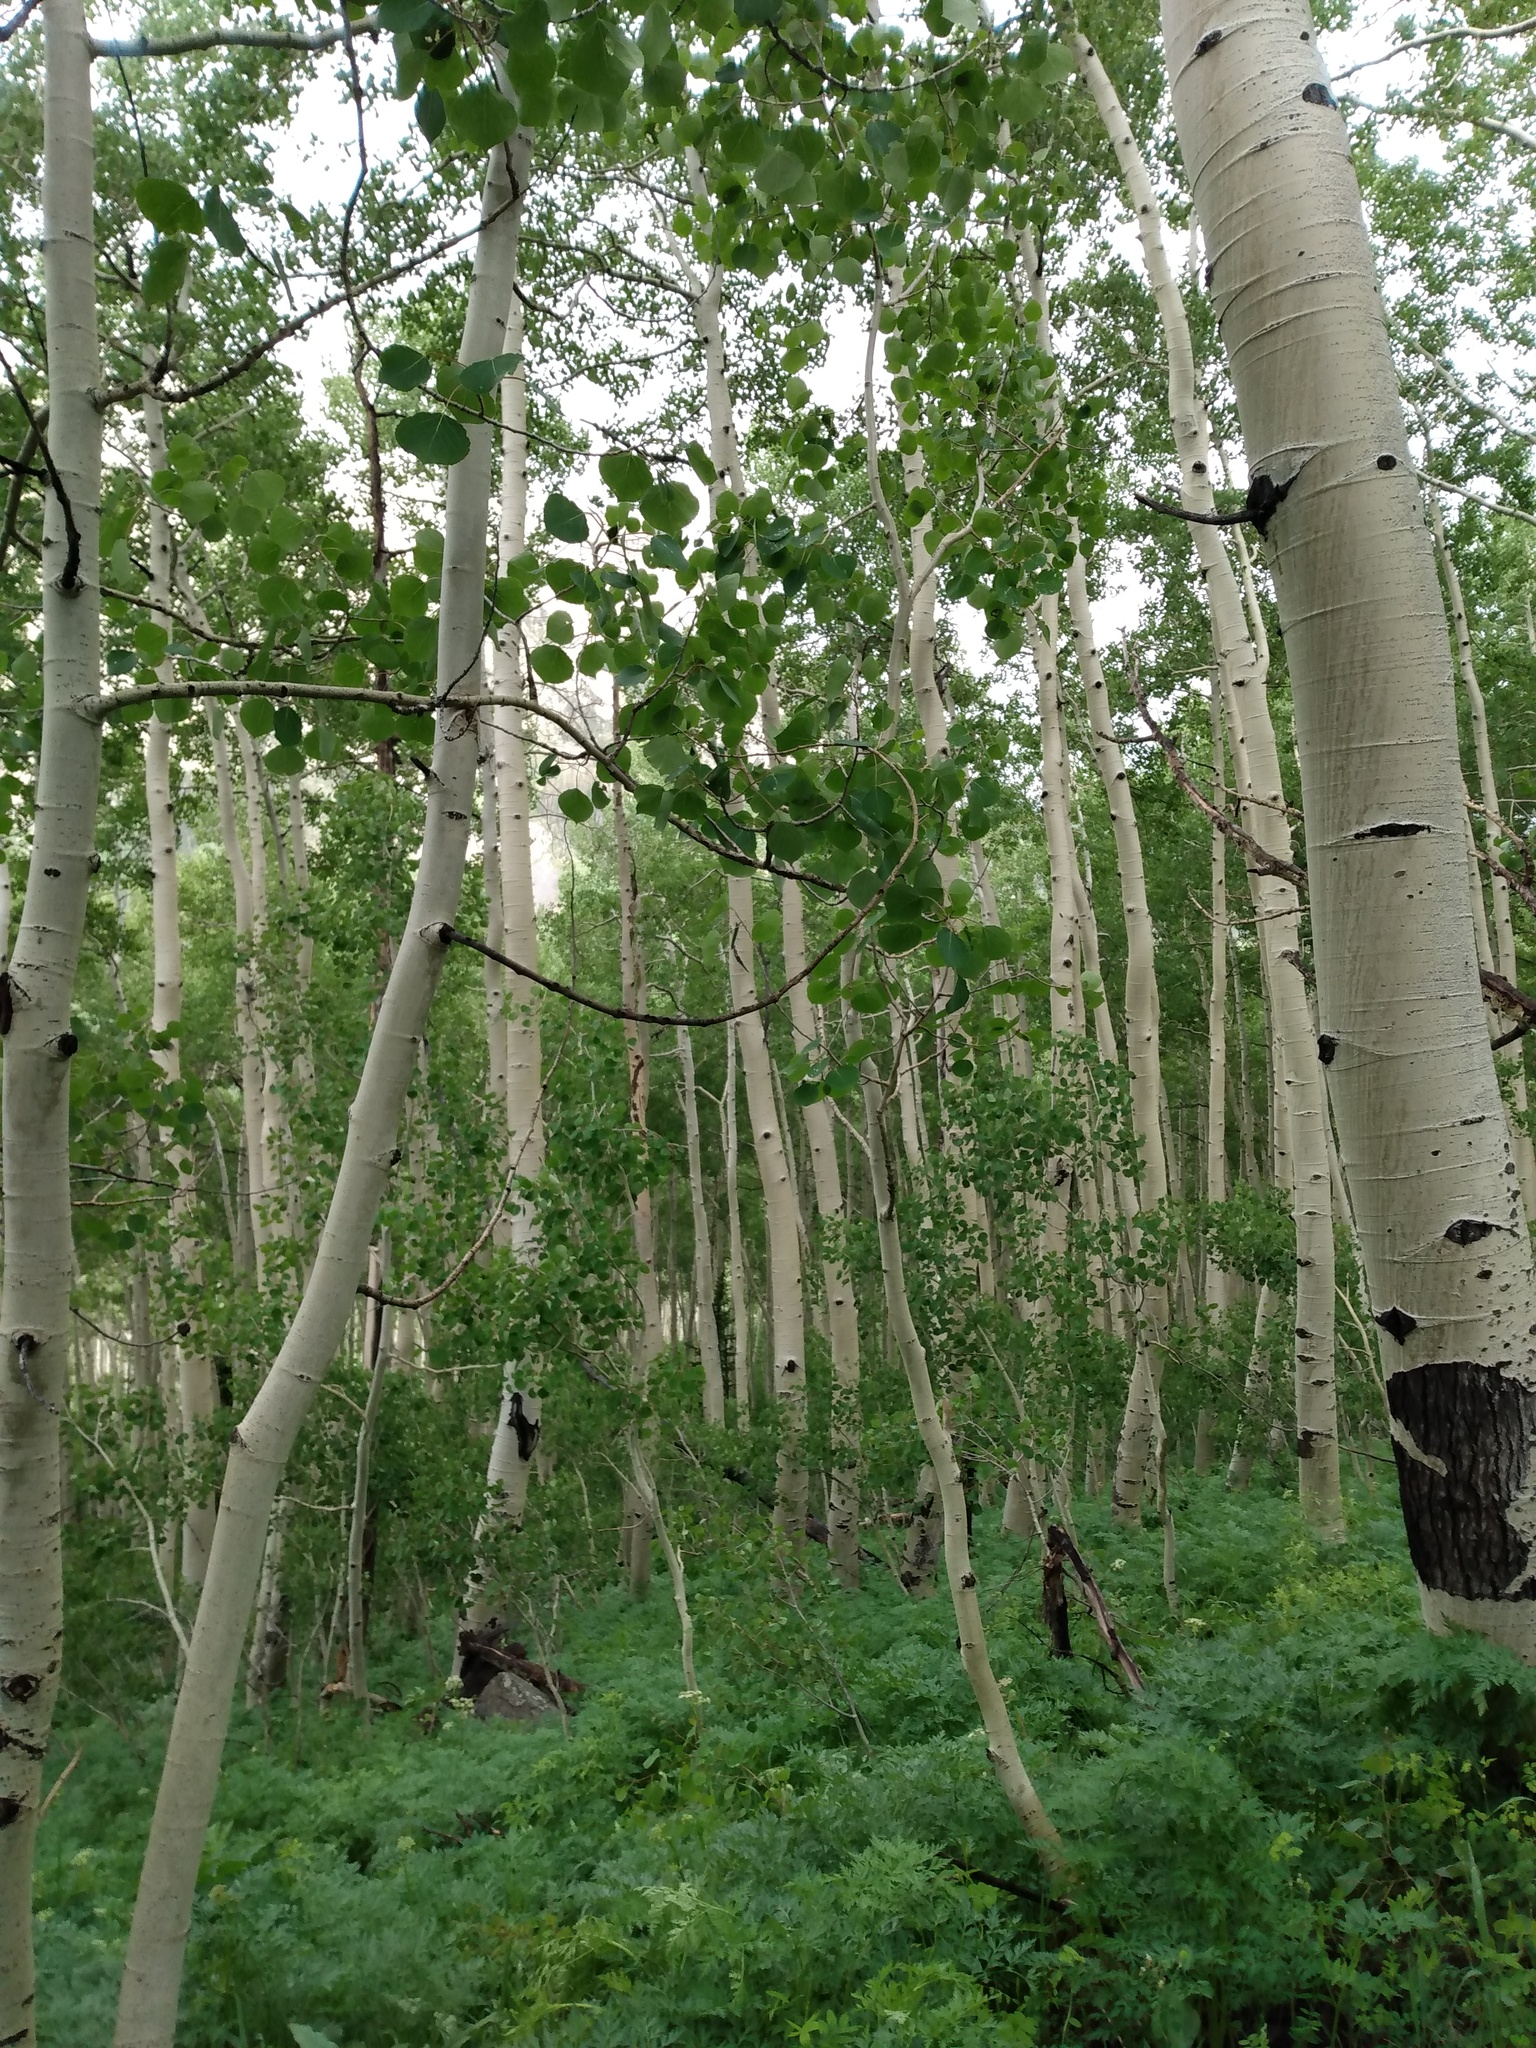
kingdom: Plantae
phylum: Tracheophyta
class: Magnoliopsida
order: Malpighiales
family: Salicaceae
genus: Populus
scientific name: Populus tremuloides
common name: Quaking aspen
